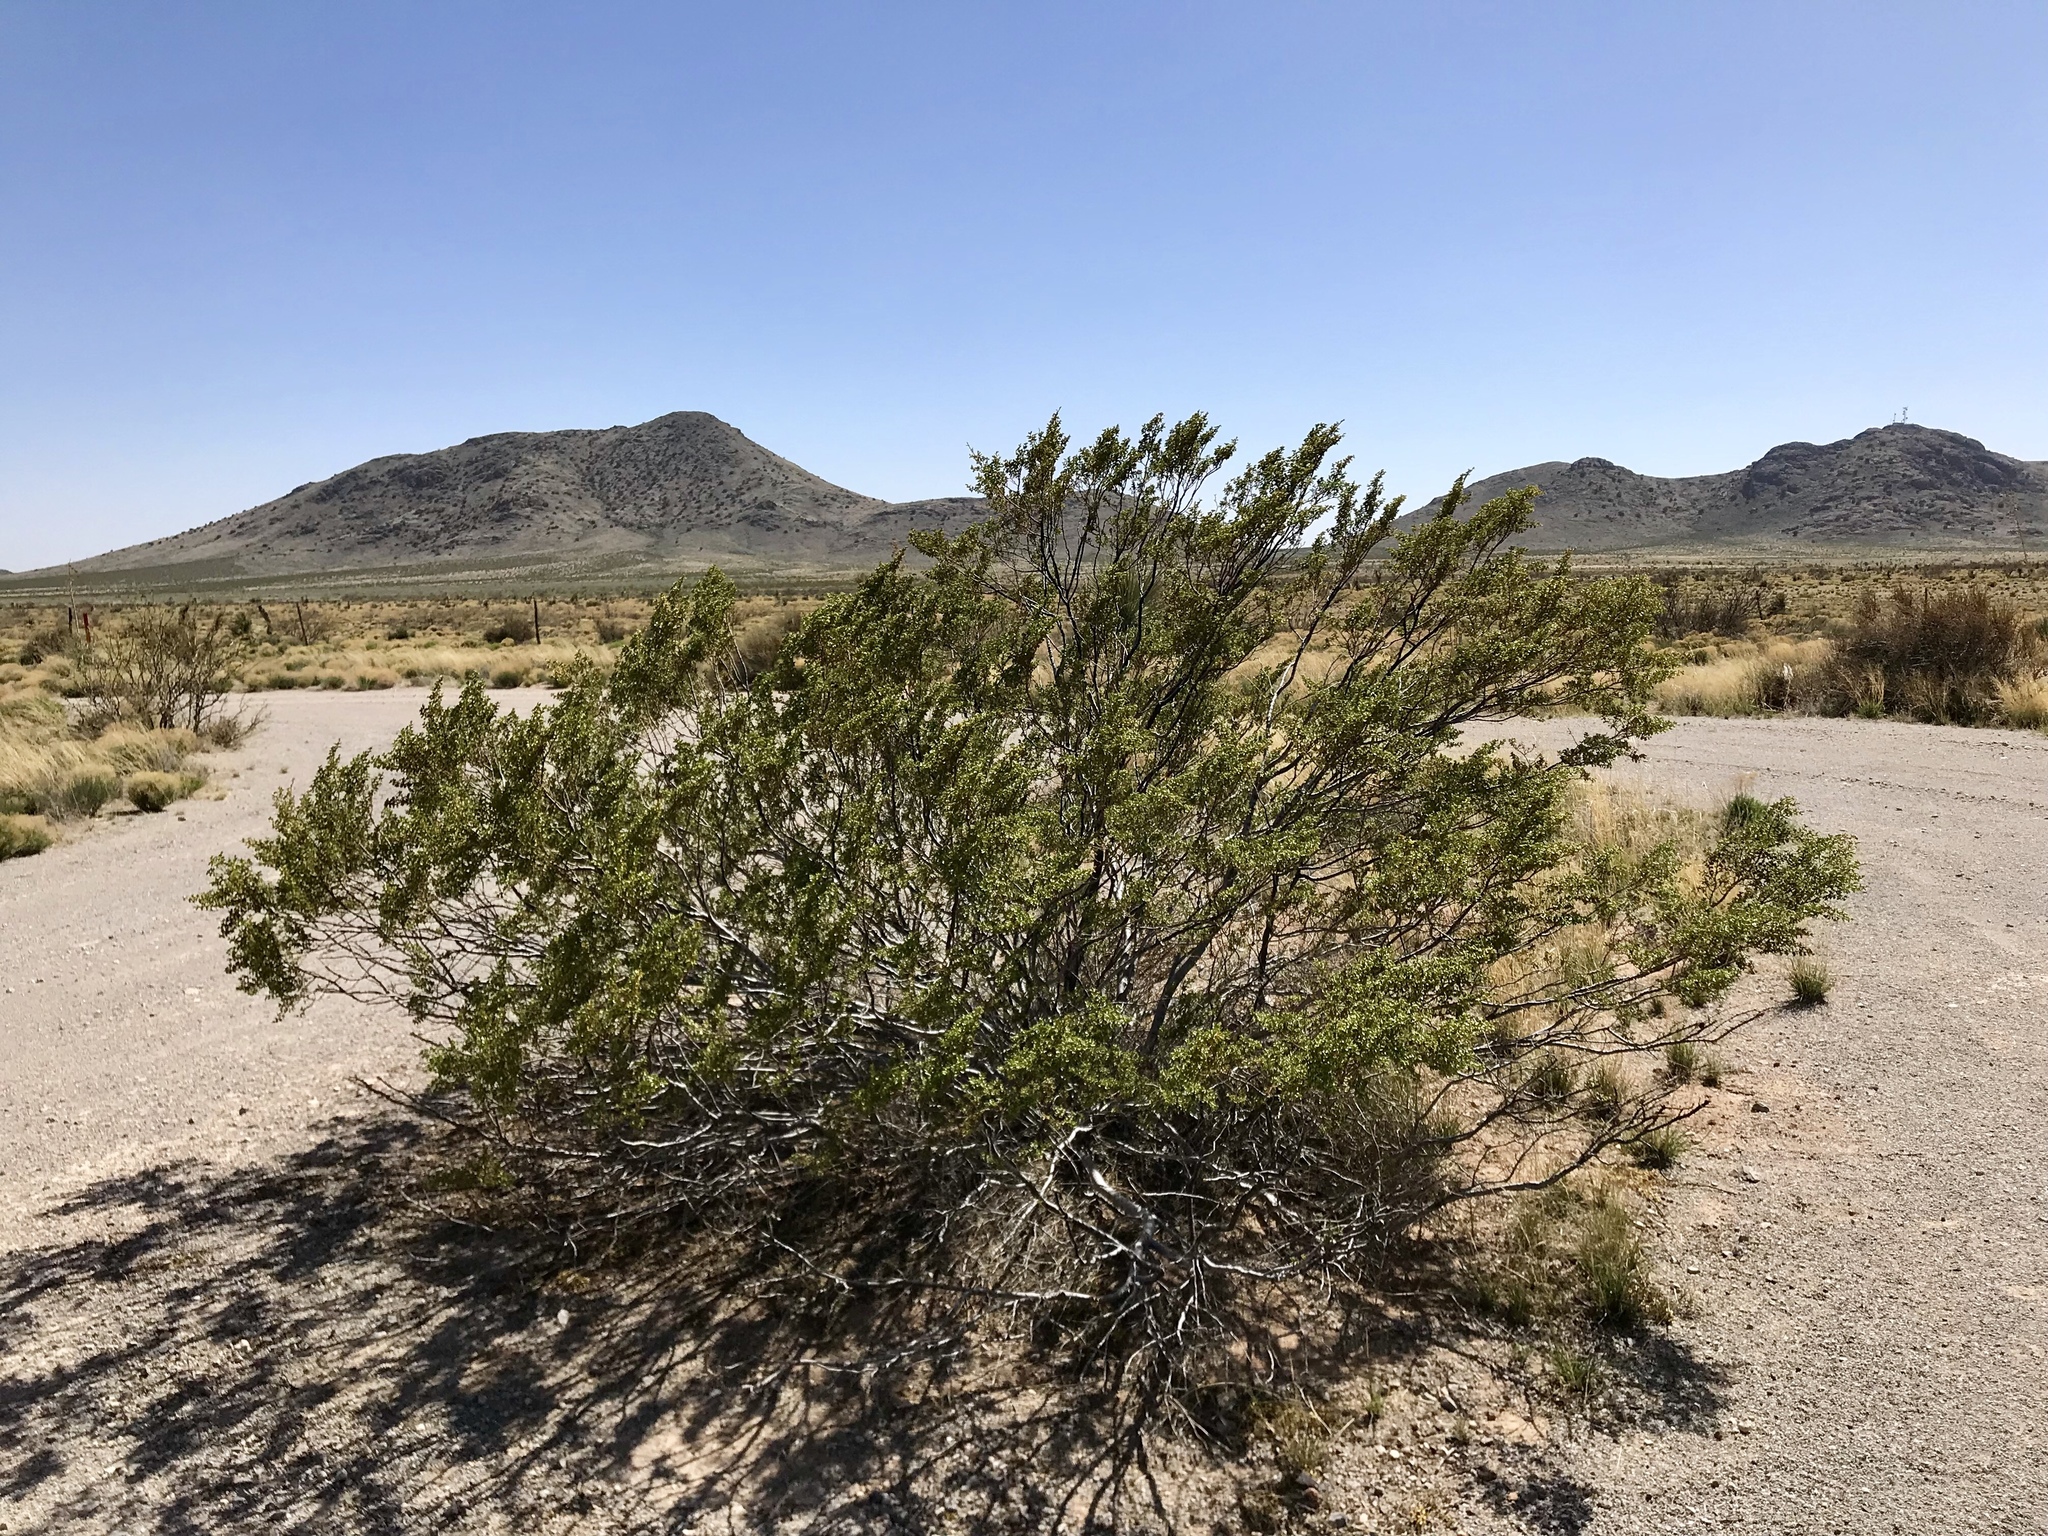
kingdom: Plantae
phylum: Tracheophyta
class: Magnoliopsida
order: Zygophyllales
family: Zygophyllaceae
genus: Larrea
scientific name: Larrea tridentata
